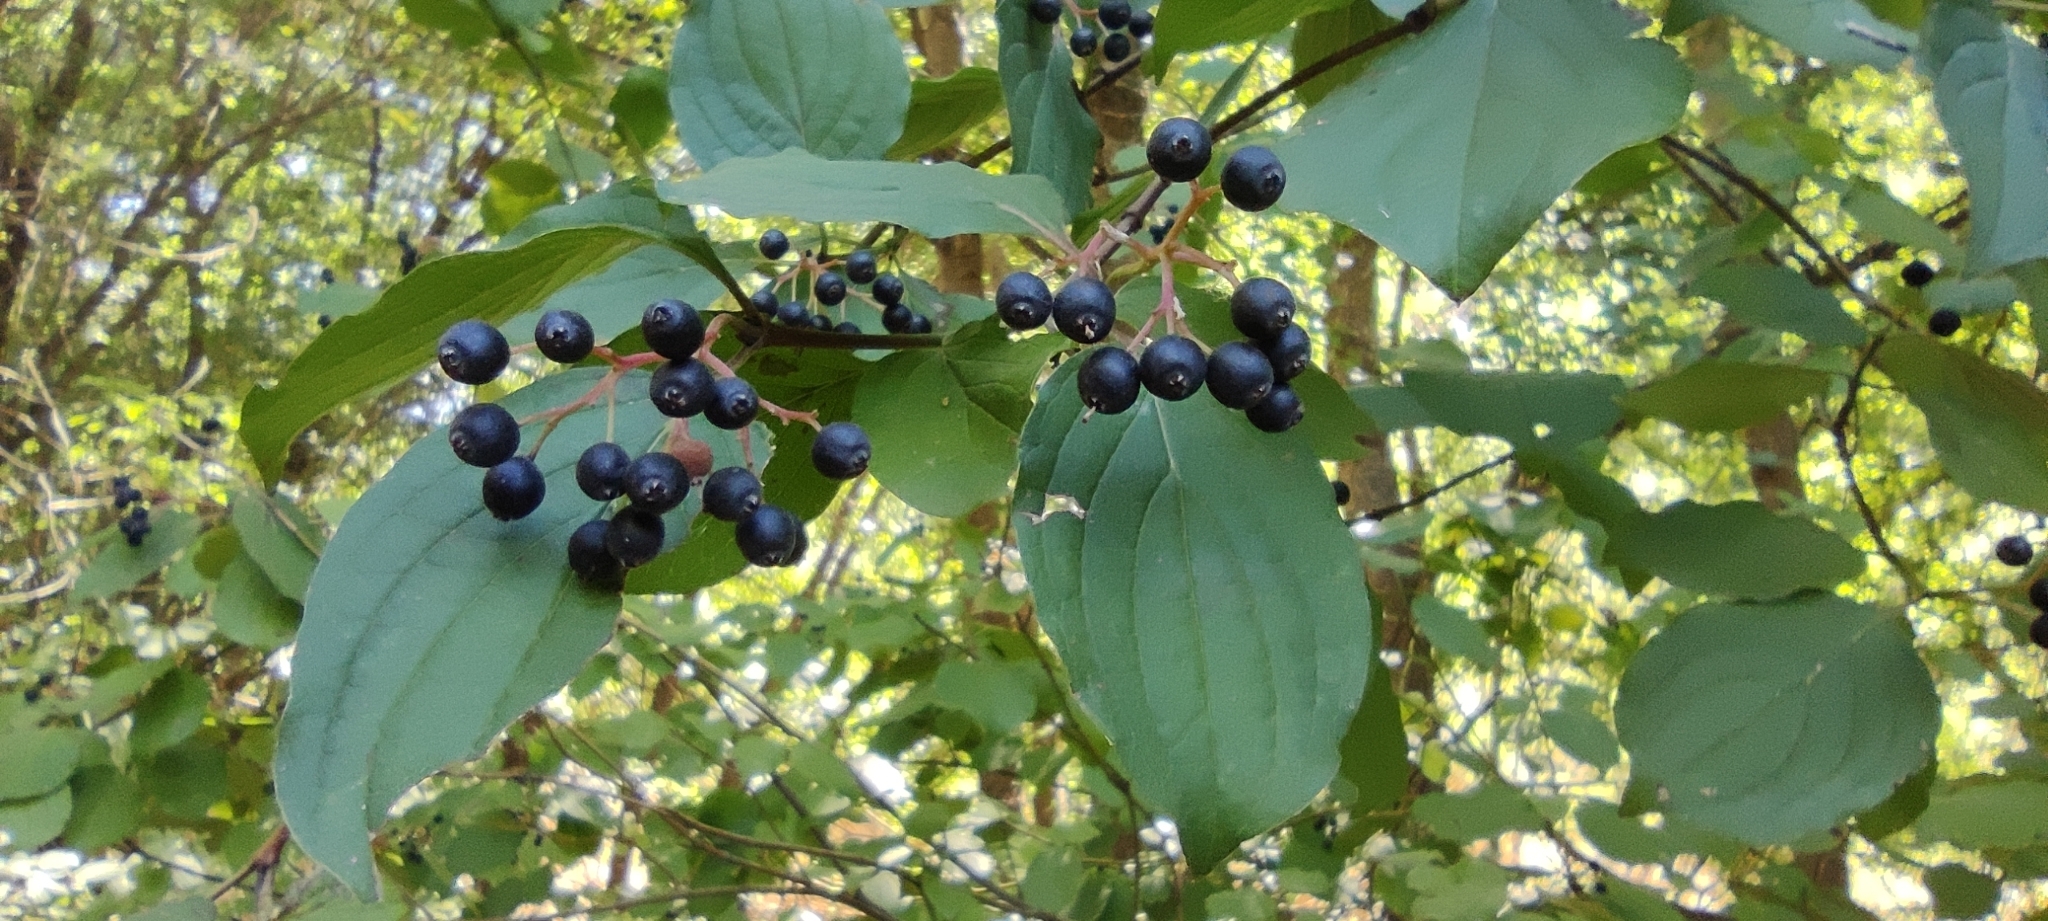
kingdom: Plantae
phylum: Tracheophyta
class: Magnoliopsida
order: Cornales
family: Cornaceae
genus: Cornus
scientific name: Cornus sanguinea
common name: Dogwood
